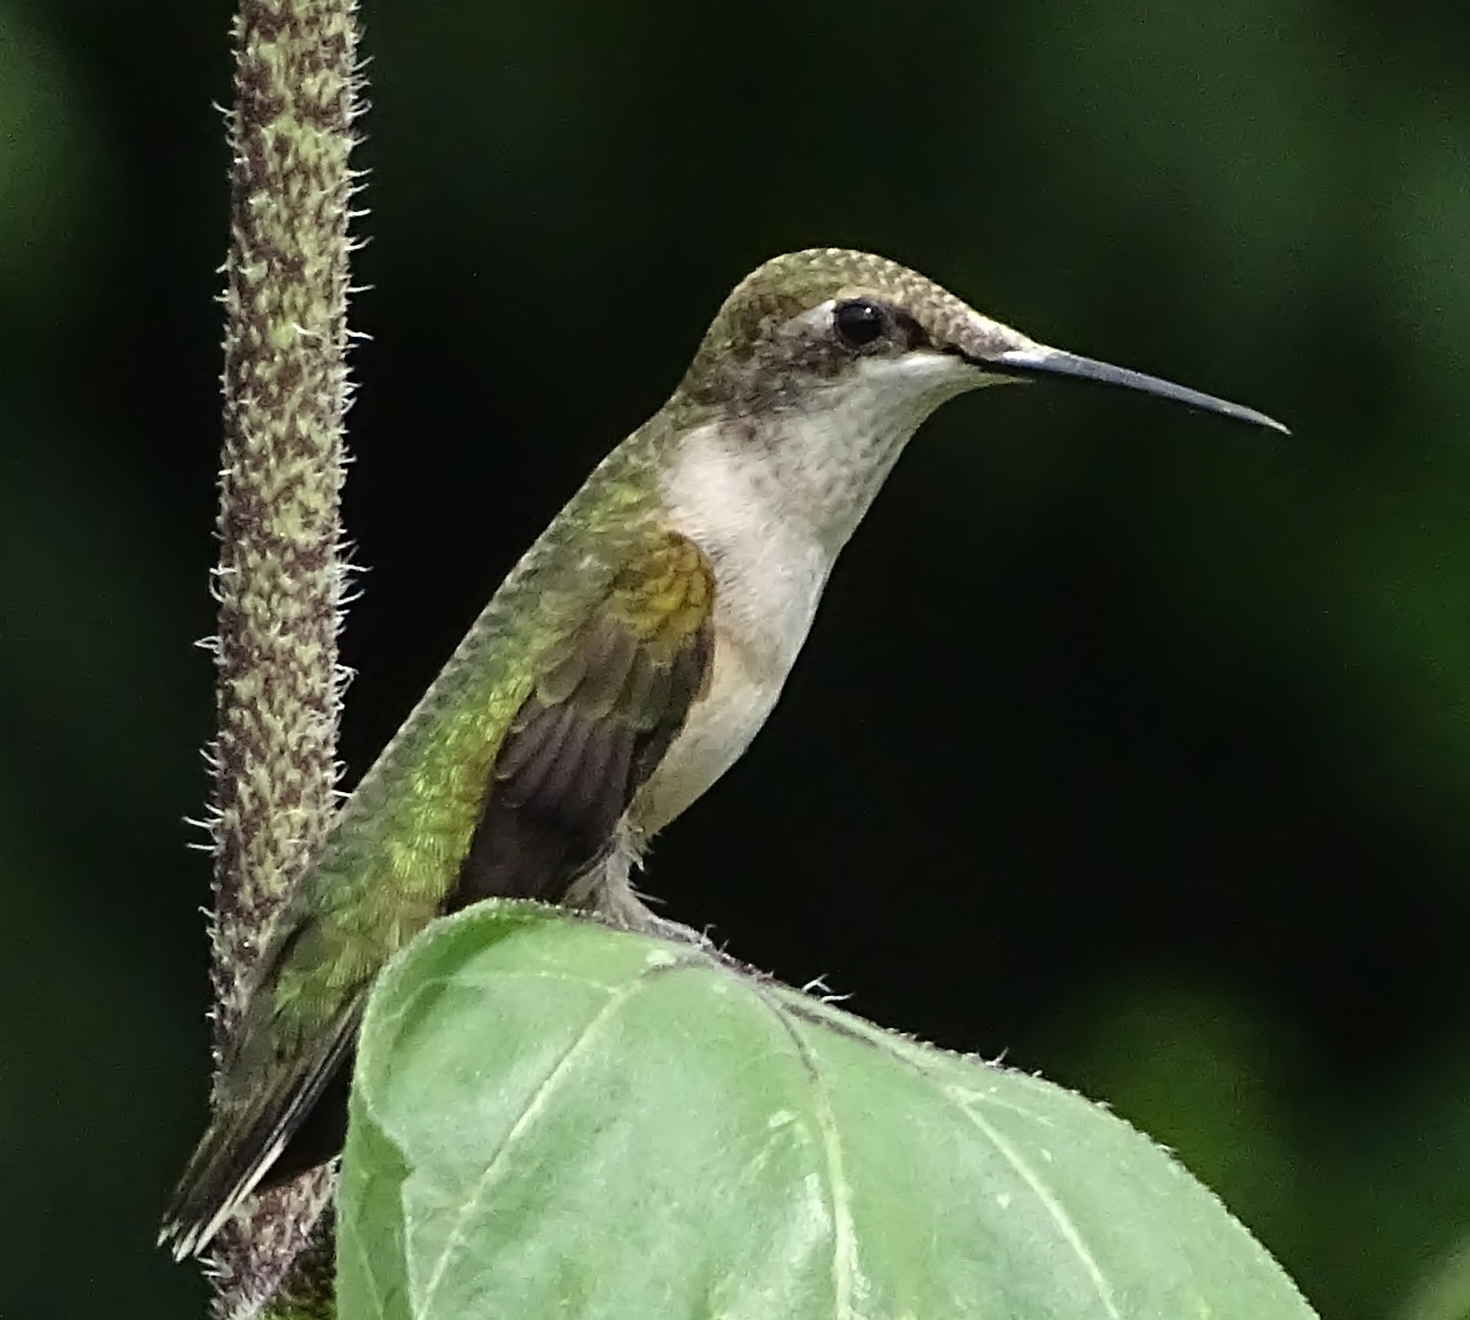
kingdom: Animalia
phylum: Chordata
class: Aves
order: Apodiformes
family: Trochilidae
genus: Archilochus
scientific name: Archilochus colubris
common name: Ruby-throated hummingbird
